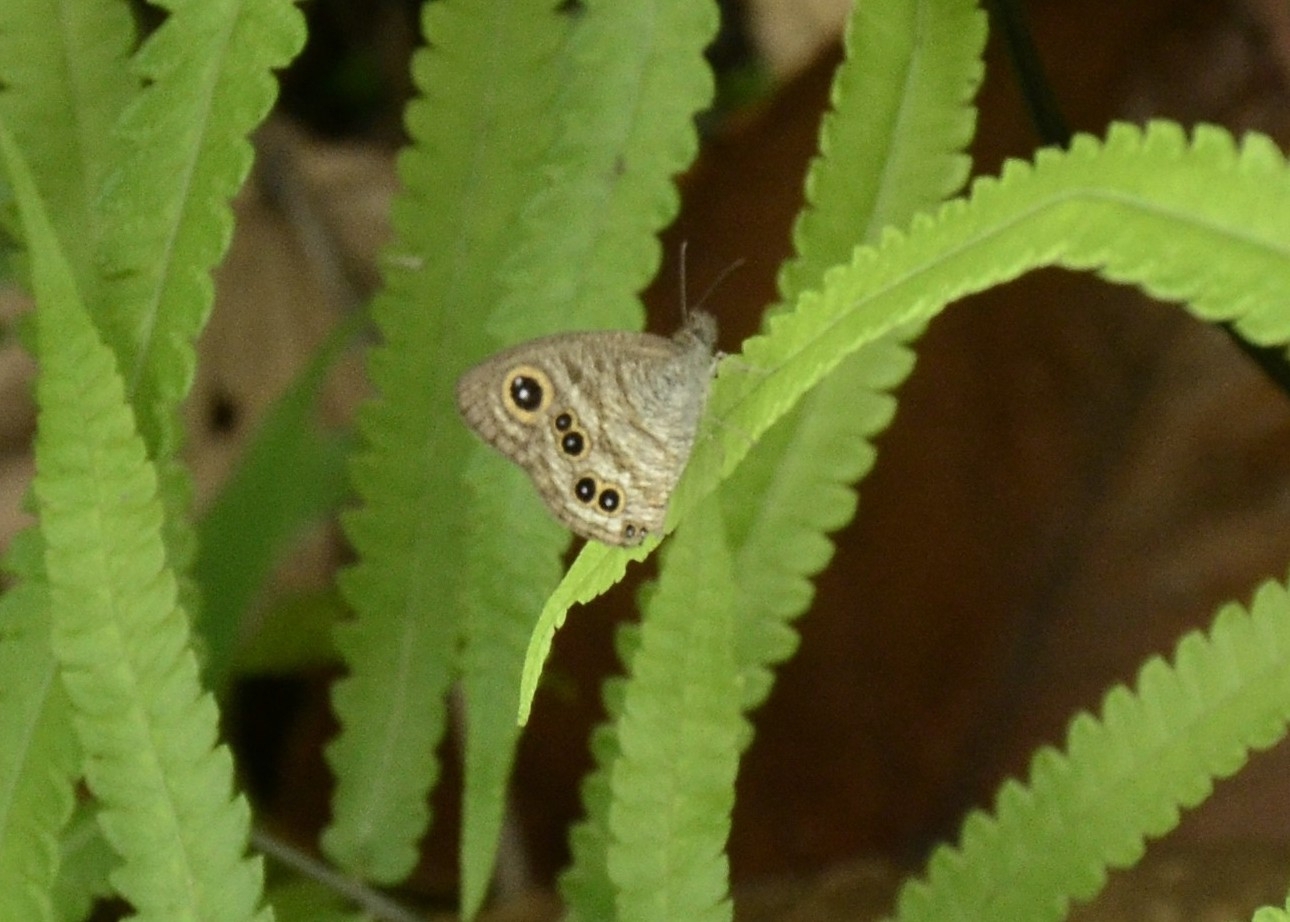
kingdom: Animalia
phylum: Arthropoda
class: Insecta
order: Lepidoptera
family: Nymphalidae
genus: Ypthima
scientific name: Ypthima baldus
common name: Common five-ring
